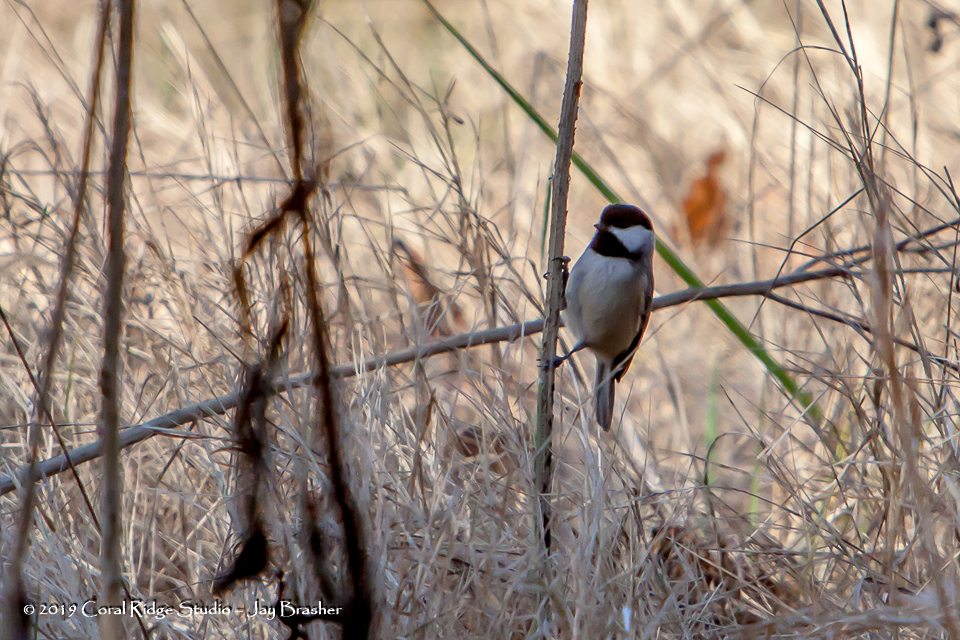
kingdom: Animalia
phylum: Chordata
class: Aves
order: Passeriformes
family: Paridae
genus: Poecile
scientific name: Poecile carolinensis
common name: Carolina chickadee
